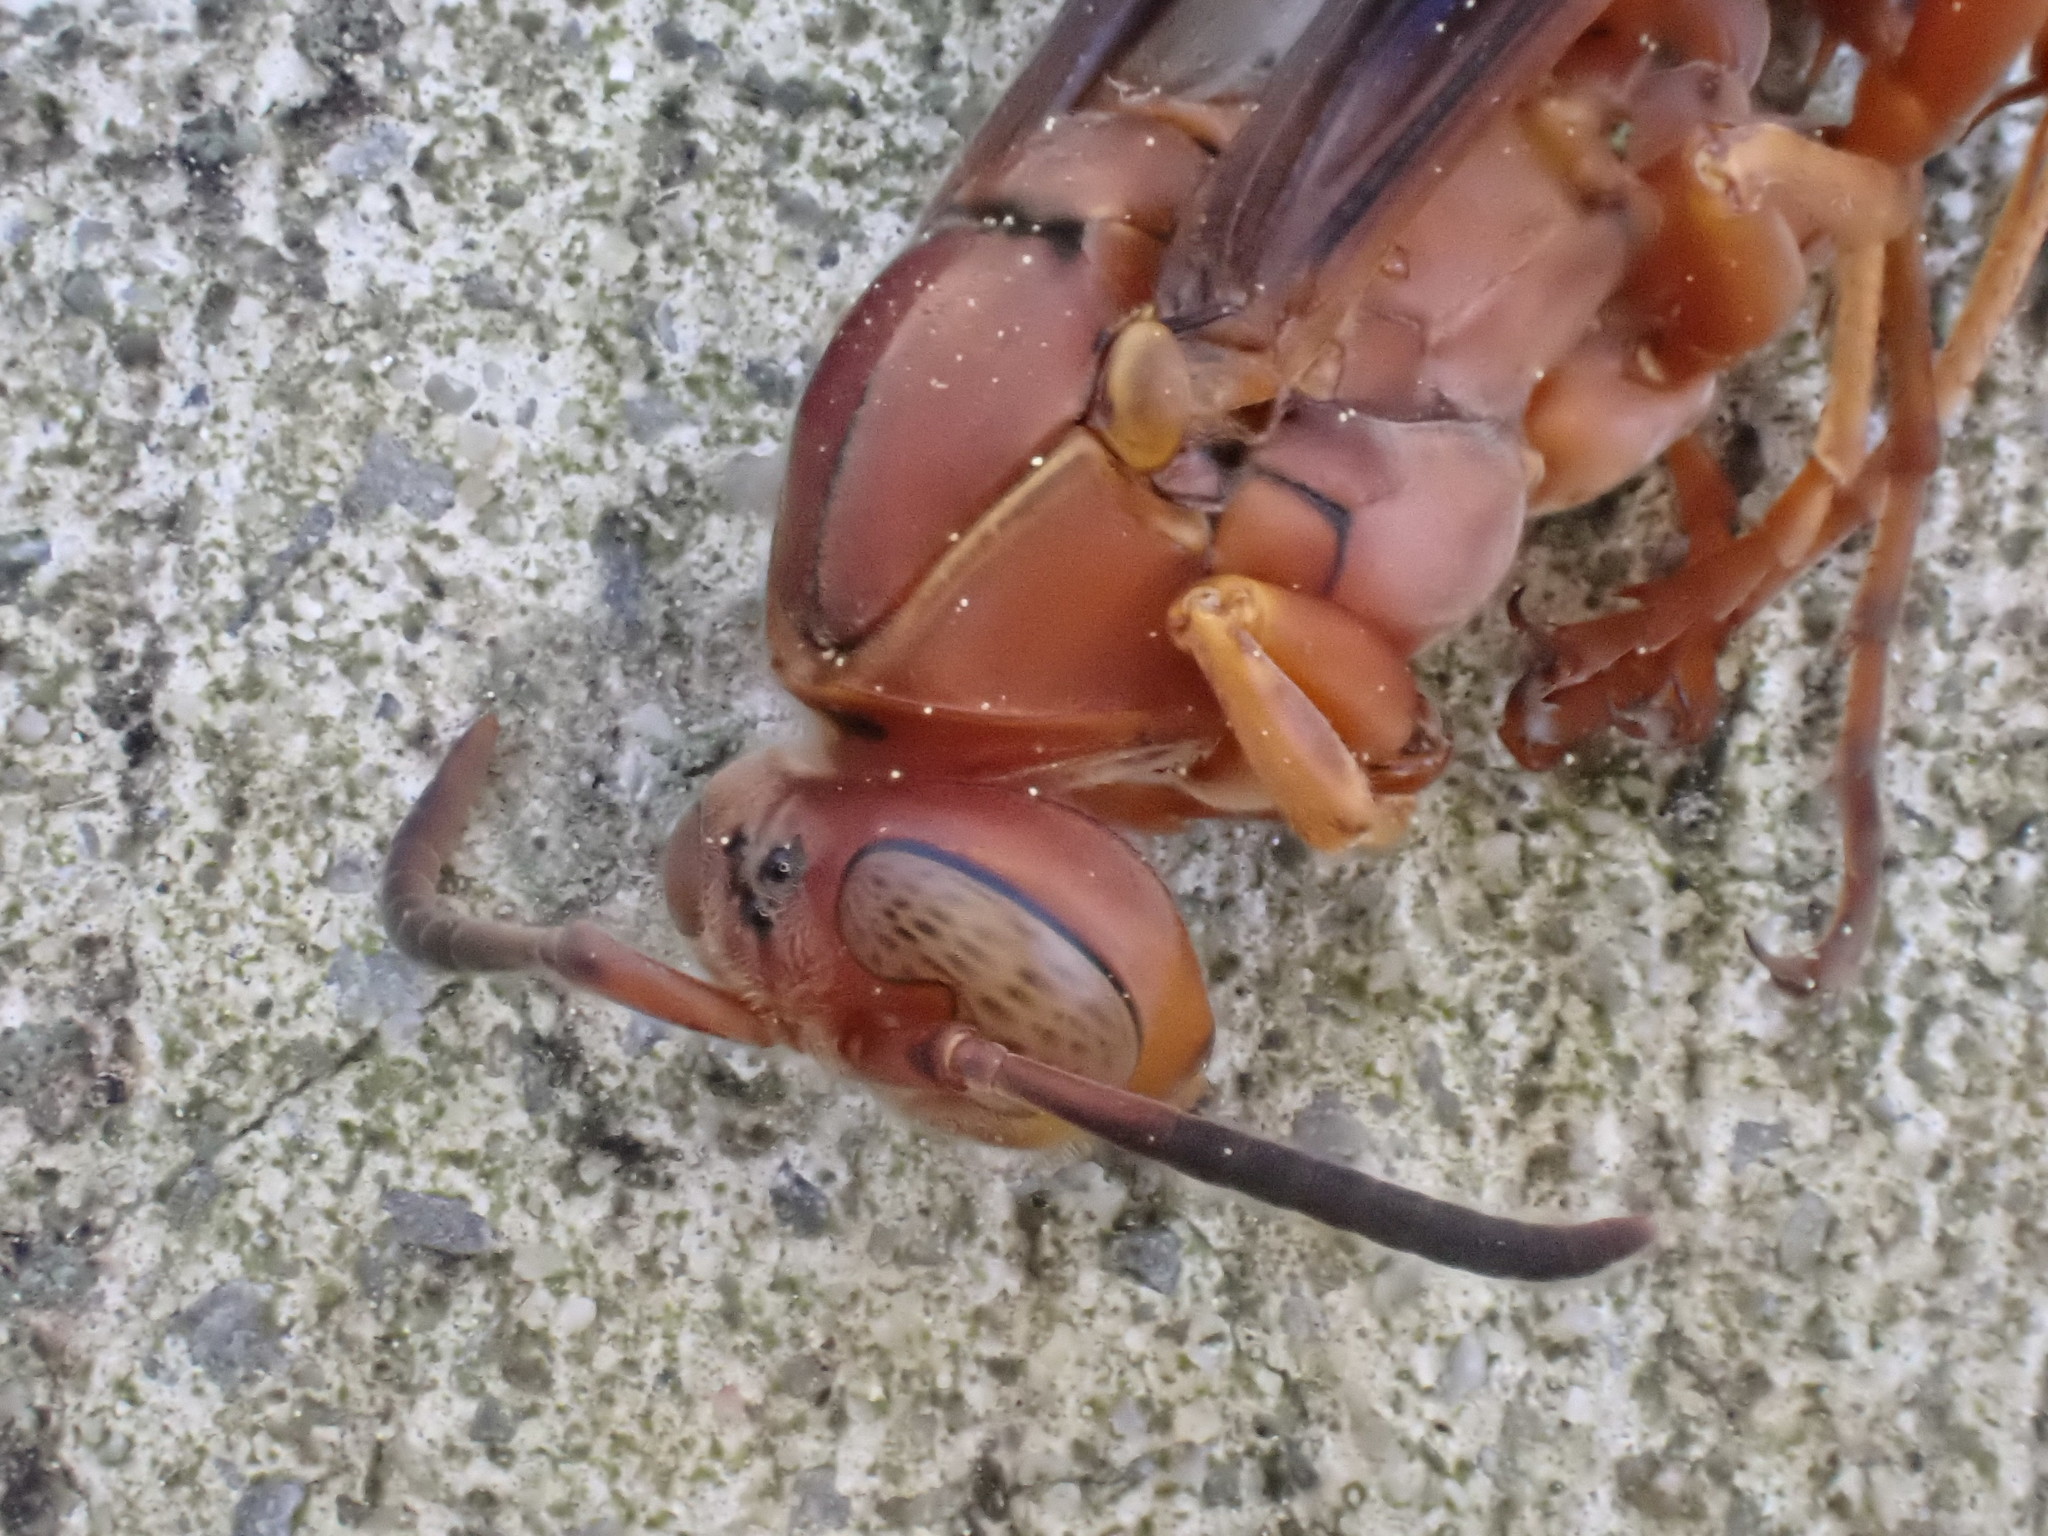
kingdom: Animalia
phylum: Arthropoda
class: Insecta
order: Hymenoptera
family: Eumenidae
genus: Polistes
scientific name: Polistes carolina
